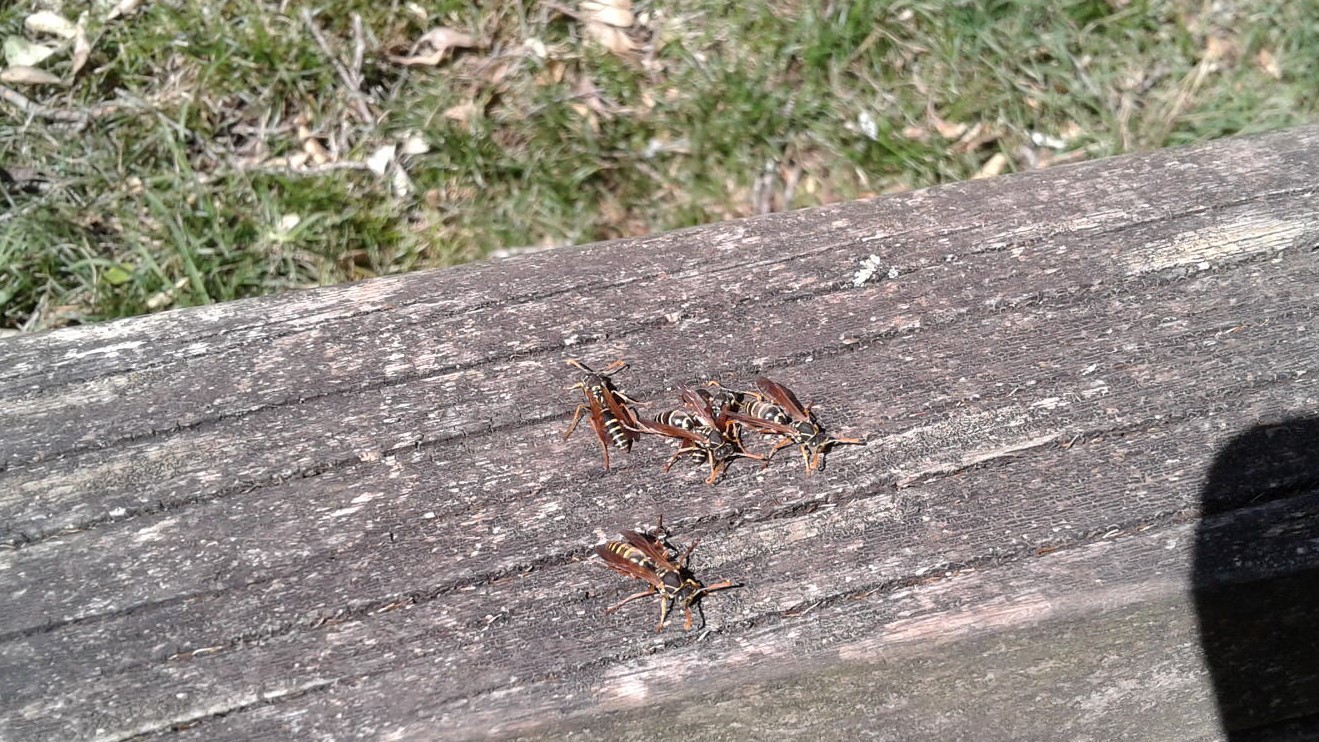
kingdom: Animalia
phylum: Arthropoda
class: Insecta
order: Hymenoptera
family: Eumenidae
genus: Polistes
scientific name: Polistes chinensis
